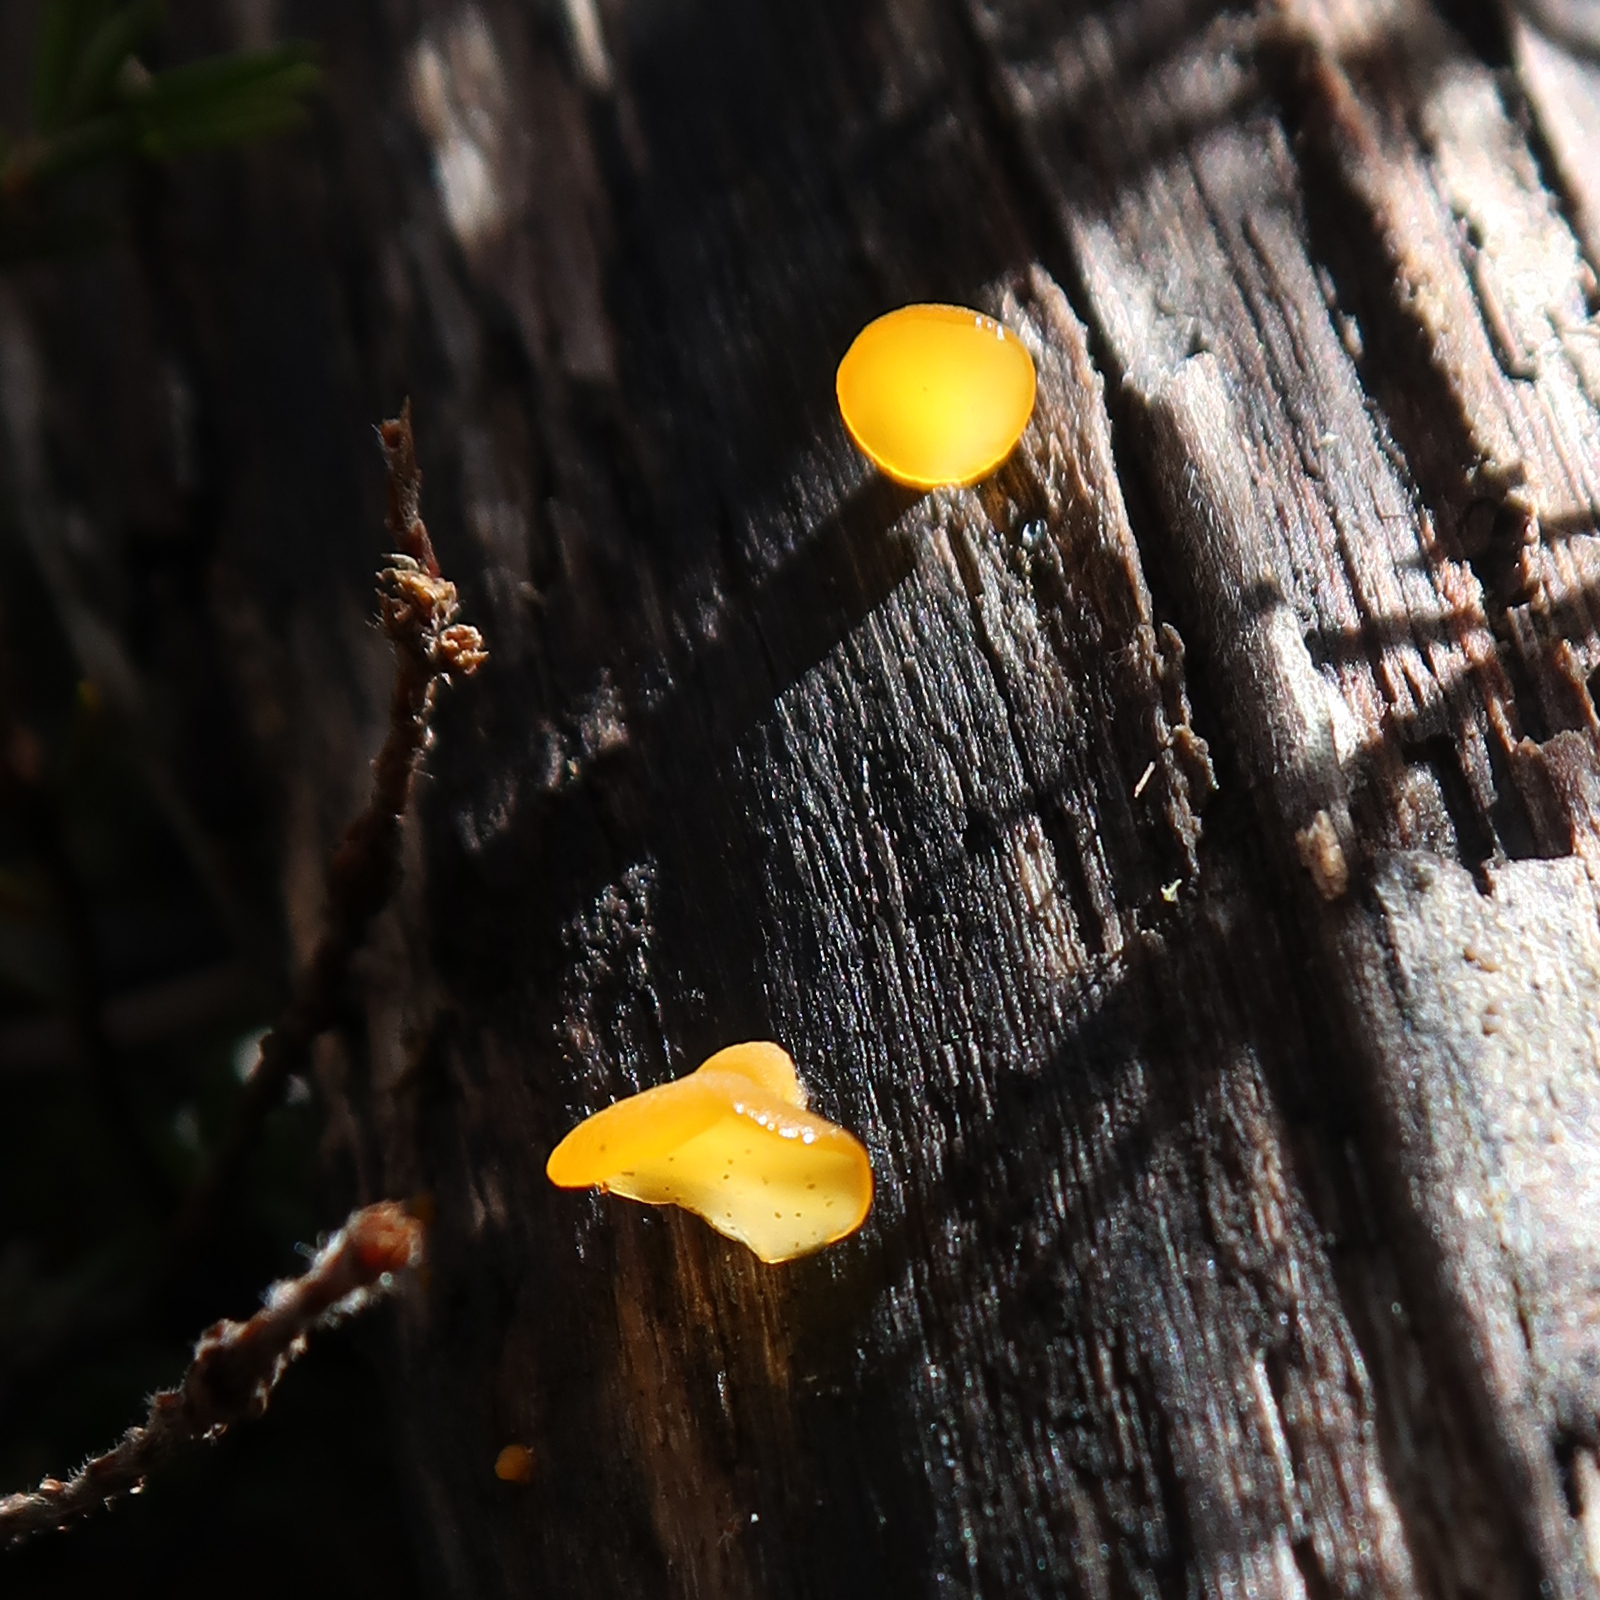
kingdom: Fungi
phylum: Basidiomycota
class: Dacrymycetes
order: Dacrymycetales
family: Dacrymycetaceae
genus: Heterotextus
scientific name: Heterotextus peziziformis
